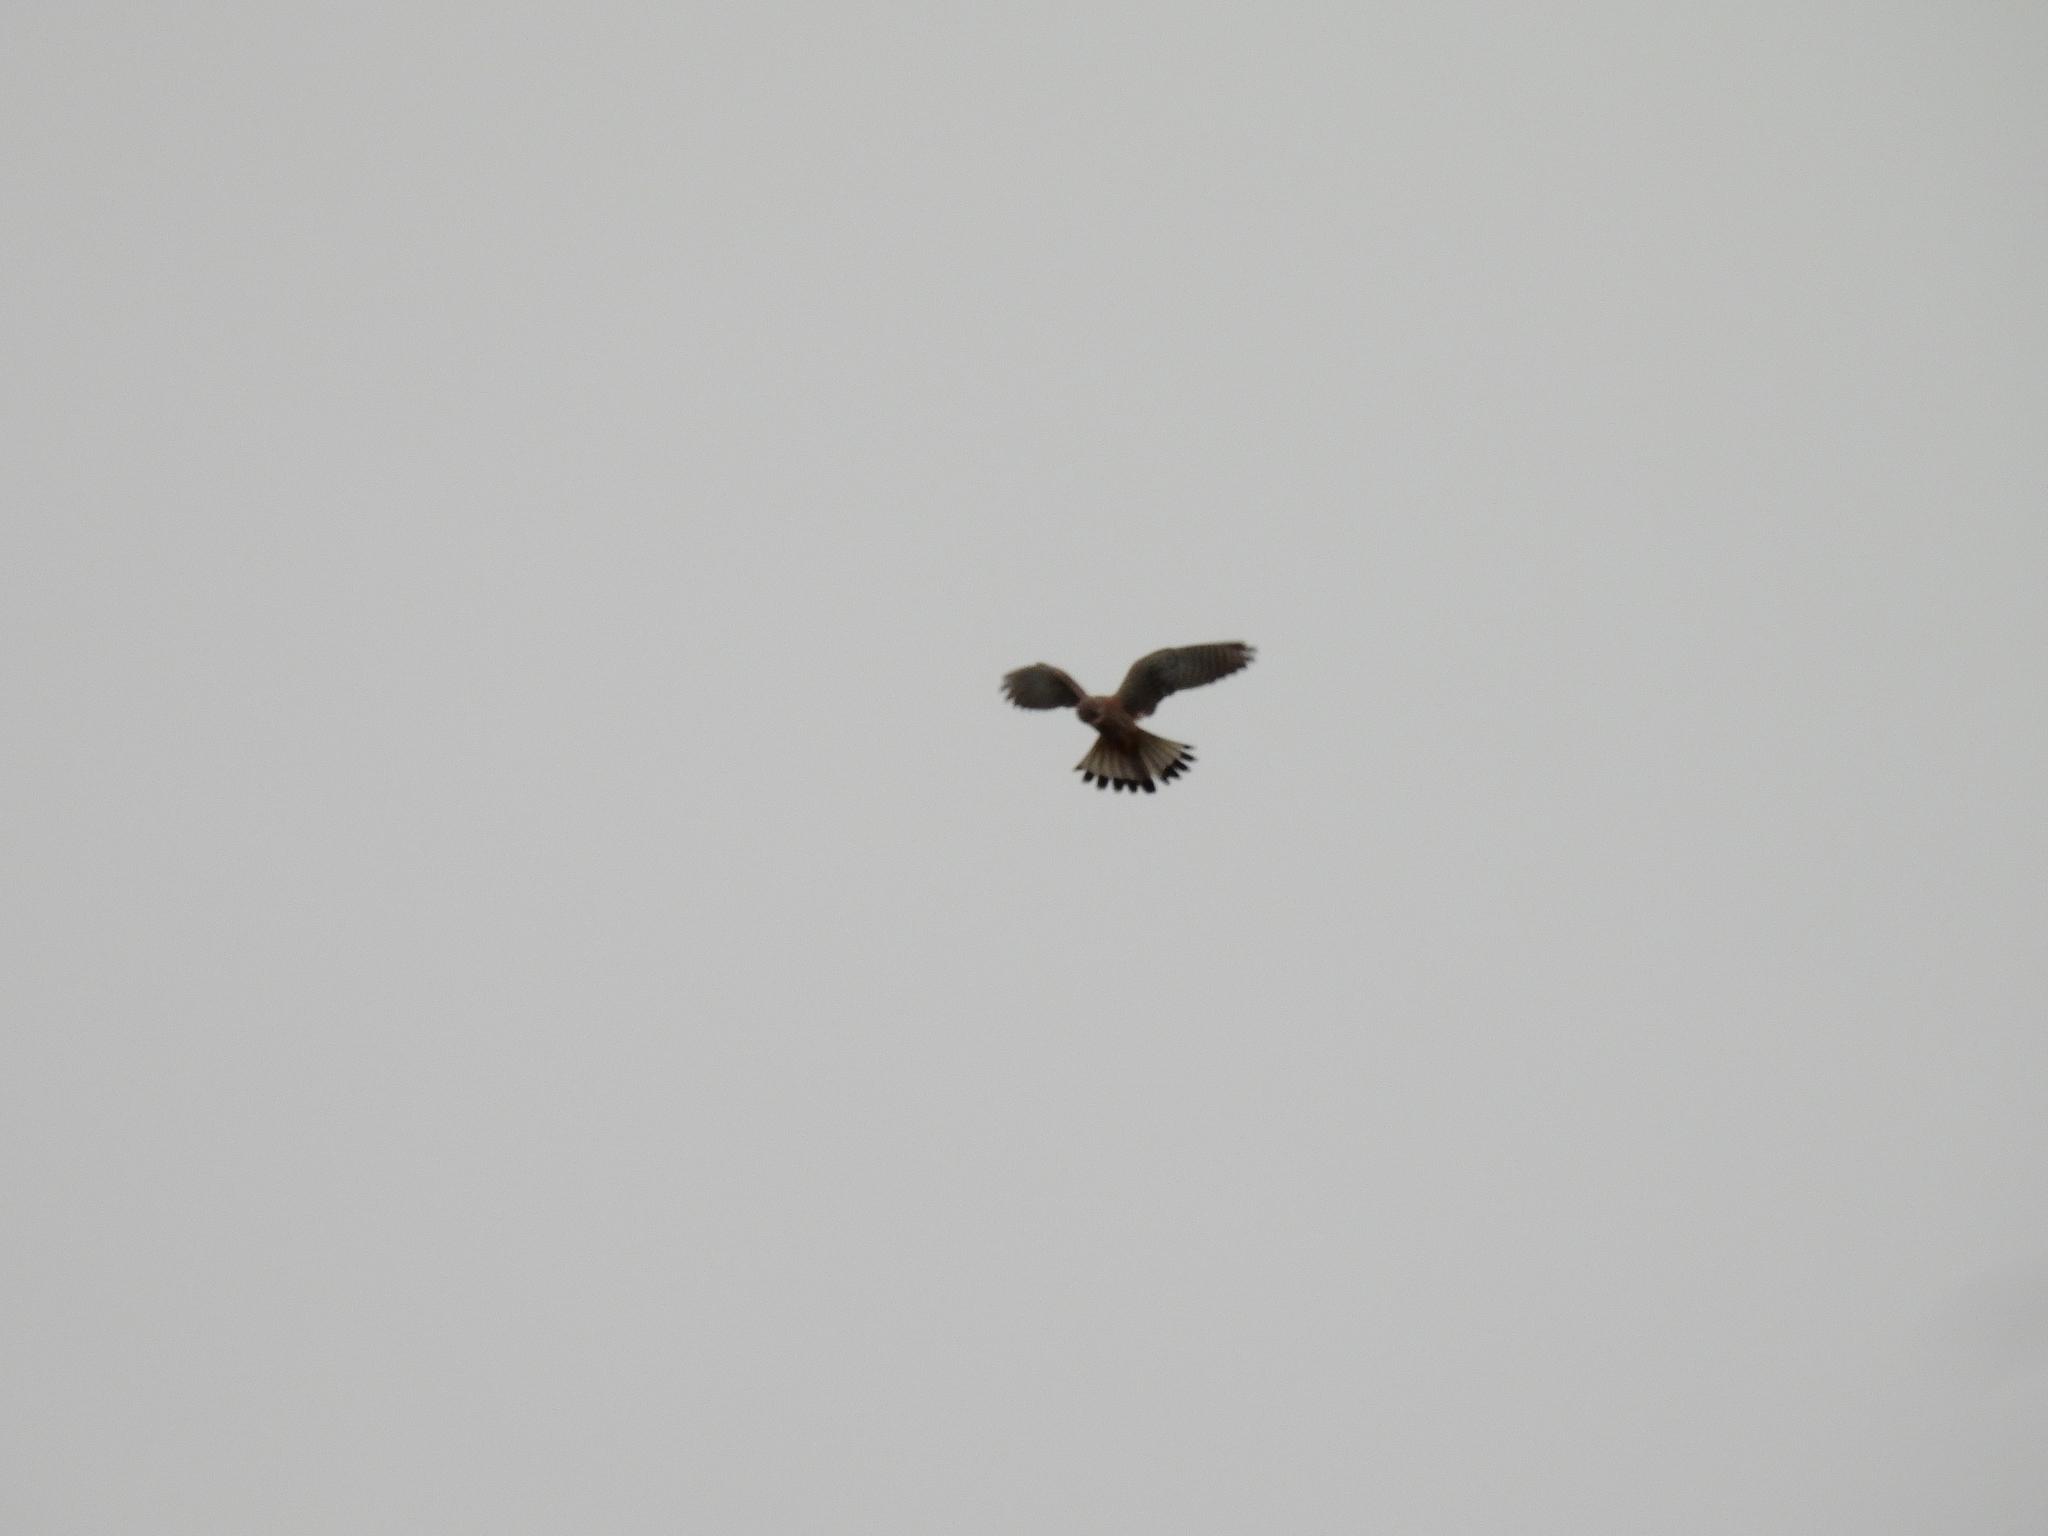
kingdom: Animalia
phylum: Chordata
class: Aves
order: Falconiformes
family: Falconidae
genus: Falco
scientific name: Falco tinnunculus
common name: Common kestrel
